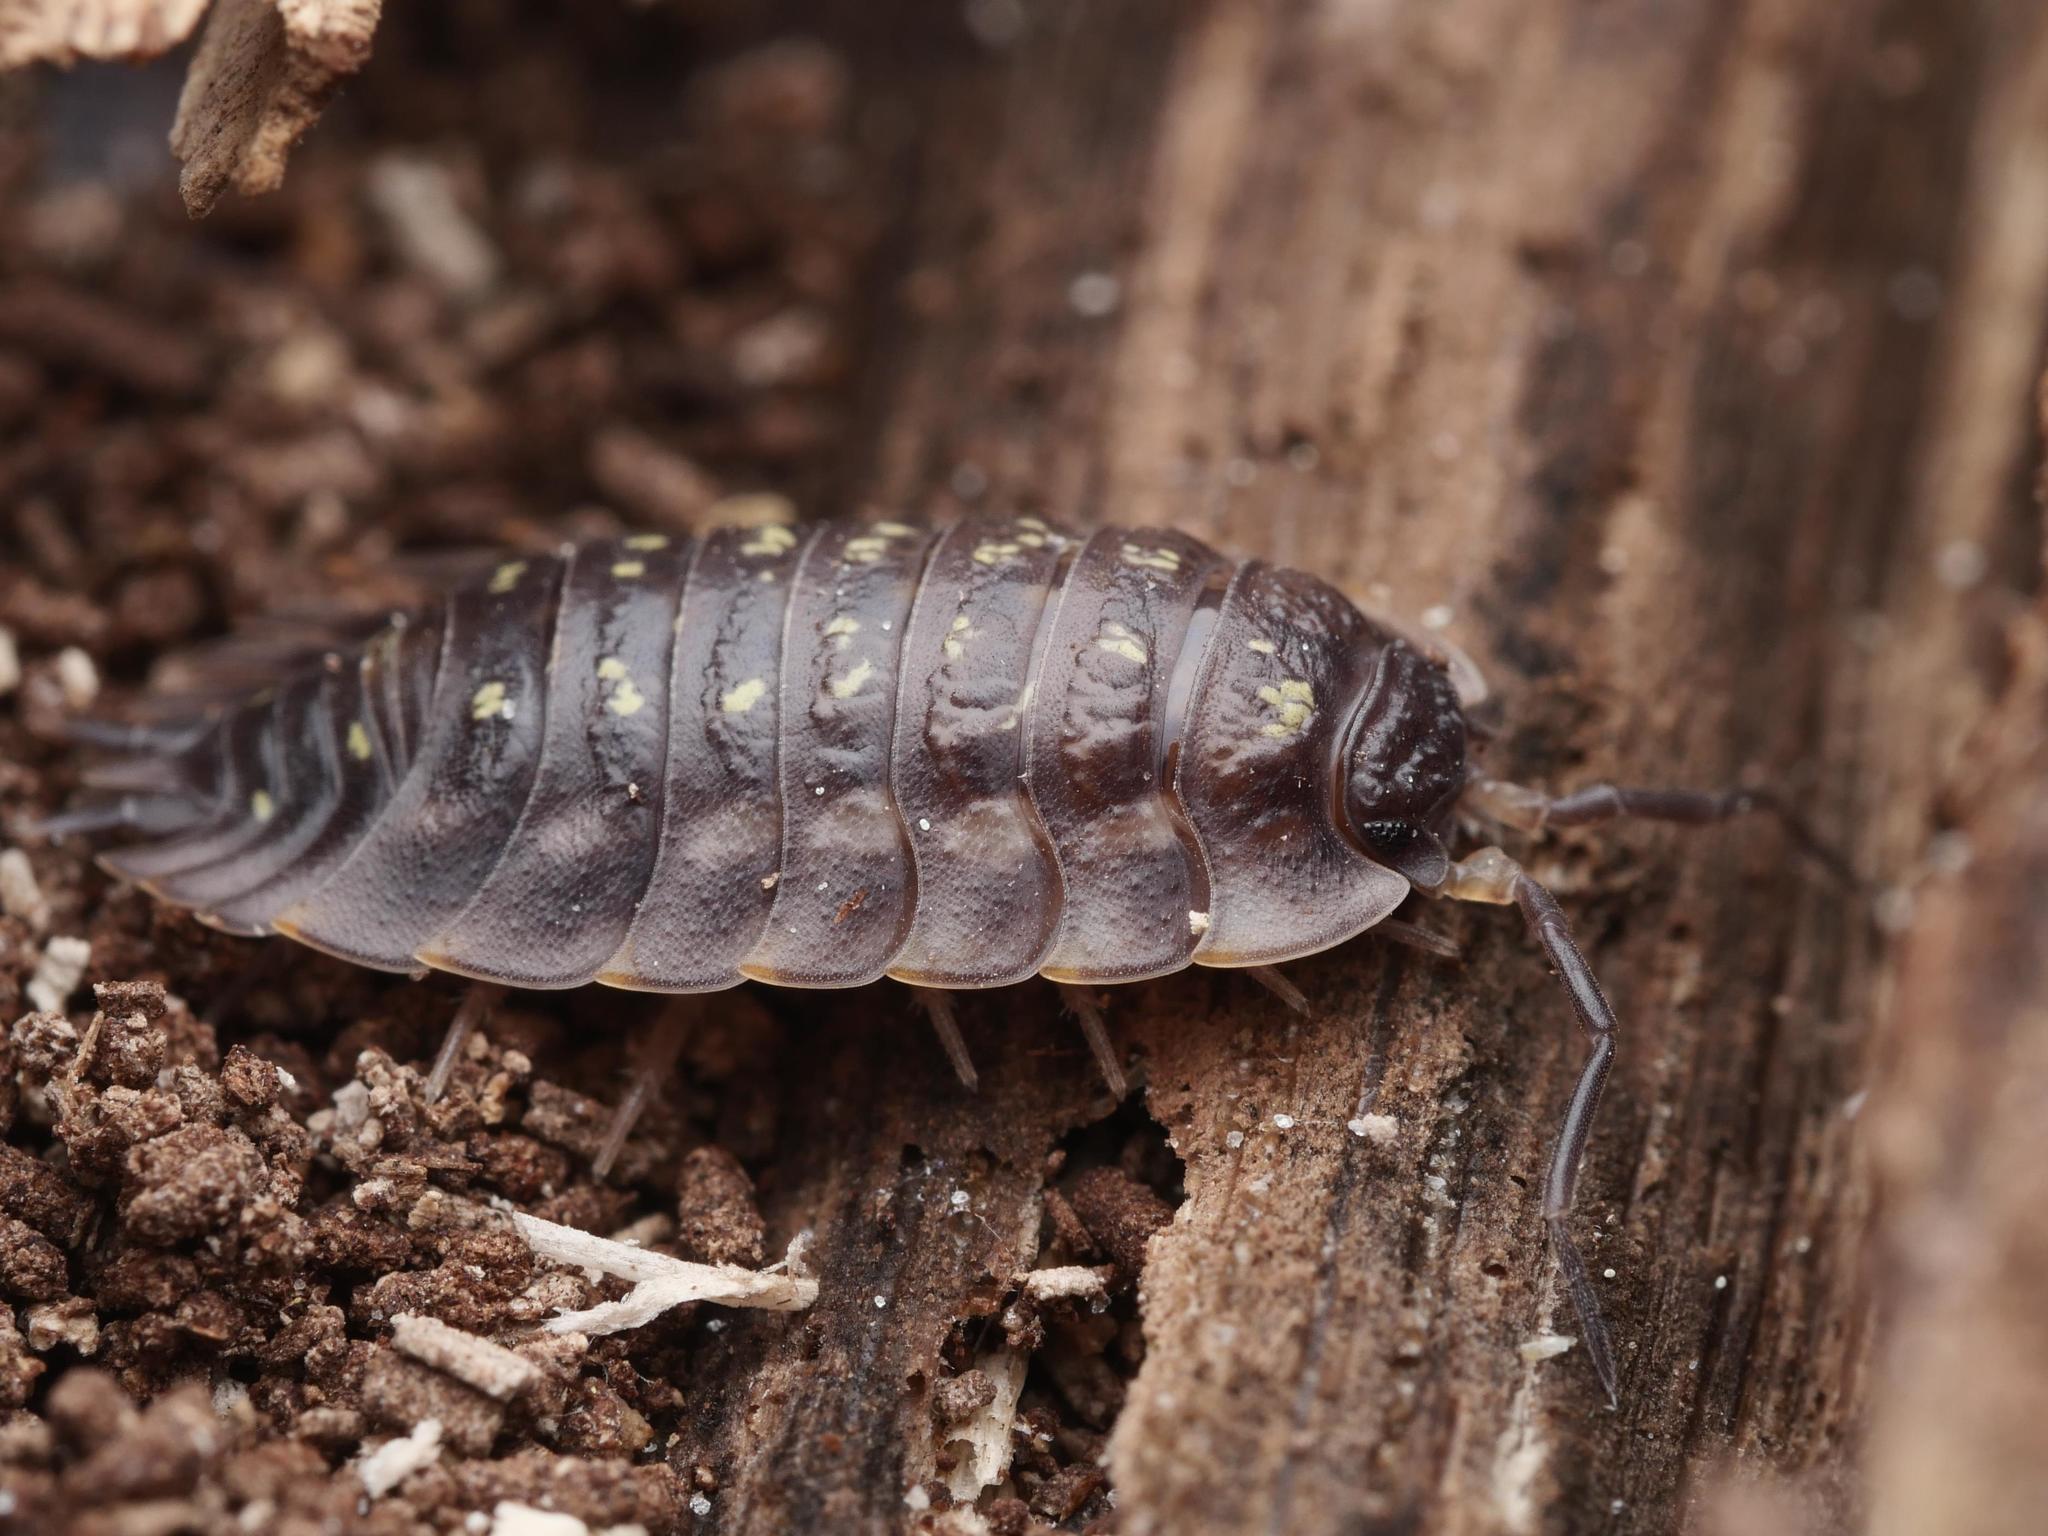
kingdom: Animalia
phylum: Arthropoda
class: Malacostraca
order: Isopoda
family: Oniscidae
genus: Oniscus
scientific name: Oniscus asellus
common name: Common shiny woodlouse
